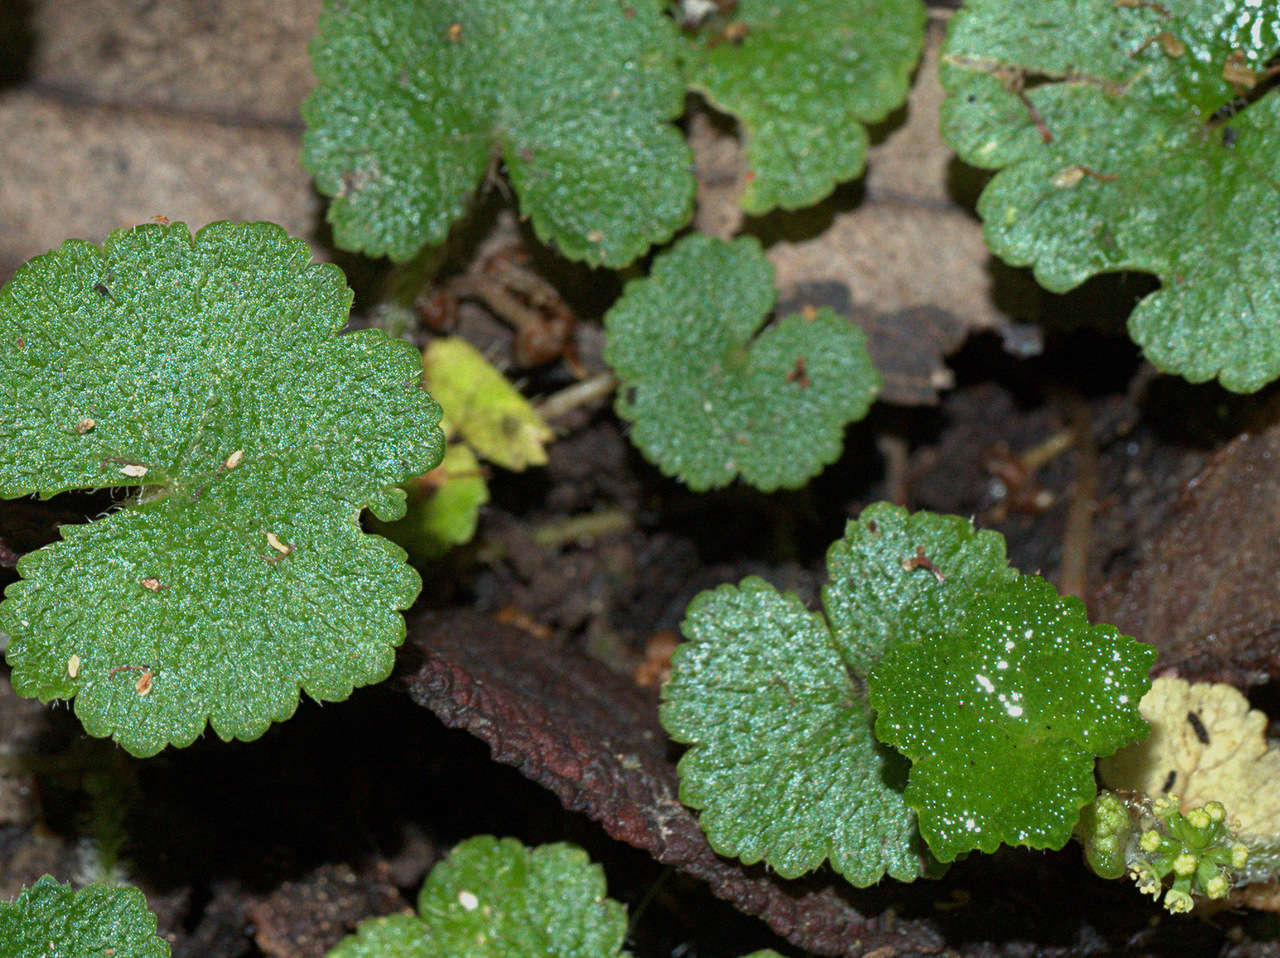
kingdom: Plantae
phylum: Tracheophyta
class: Magnoliopsida
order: Apiales
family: Araliaceae
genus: Hydrocotyle
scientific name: Hydrocotyle hirta
